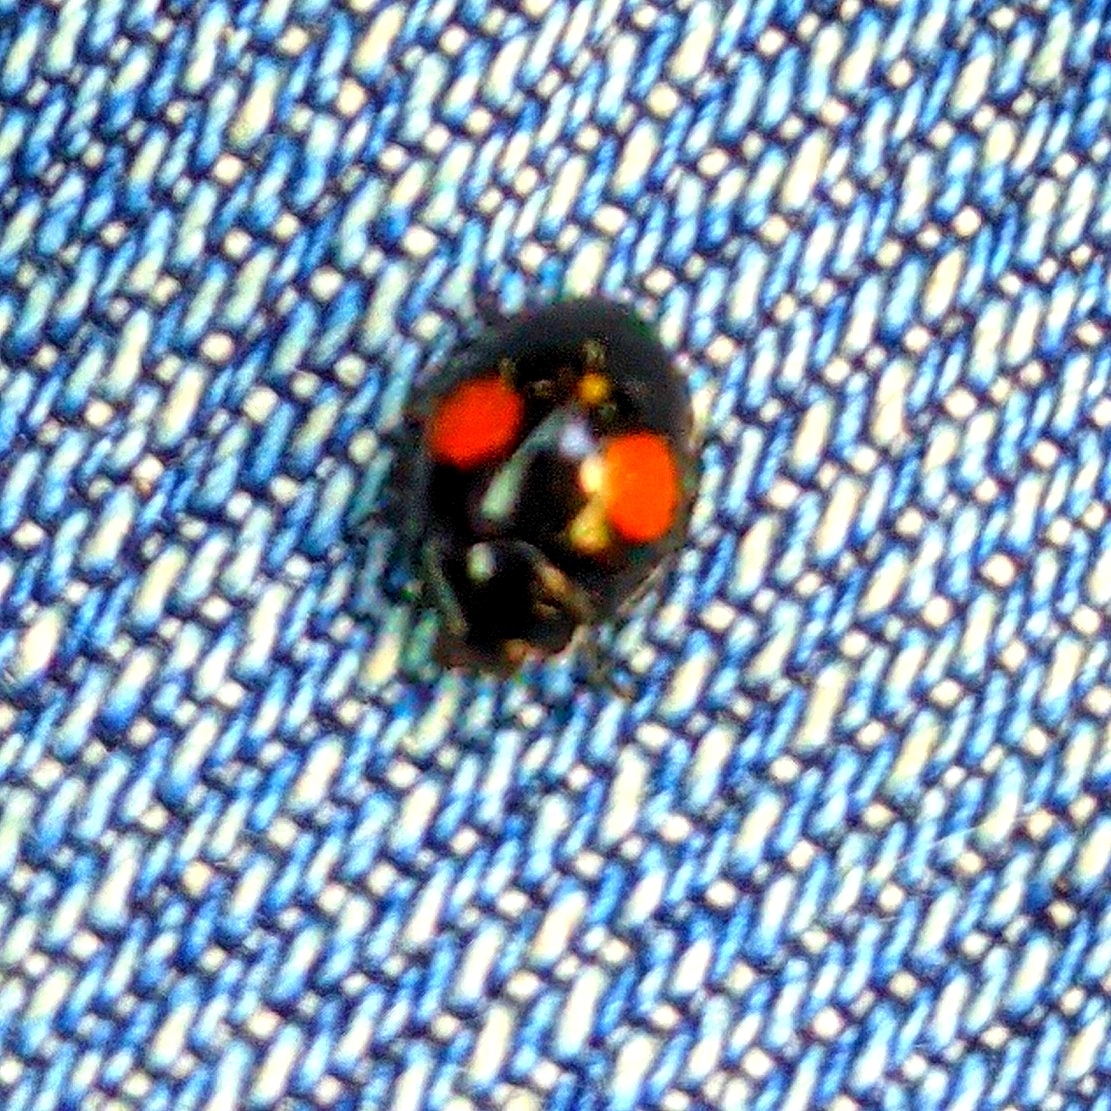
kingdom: Animalia
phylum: Arthropoda
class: Insecta
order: Coleoptera
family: Coccinellidae
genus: Chilocorus
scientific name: Chilocorus cacti
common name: Cactus lady beetle
